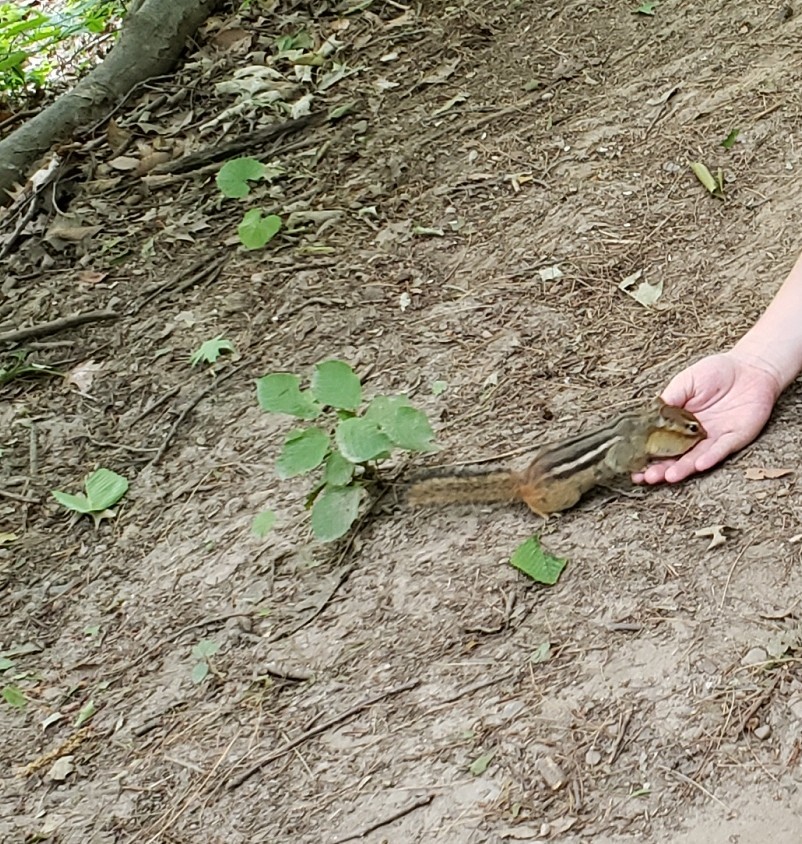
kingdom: Animalia
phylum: Chordata
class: Mammalia
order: Rodentia
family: Sciuridae
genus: Tamias
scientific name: Tamias striatus
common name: Eastern chipmunk
